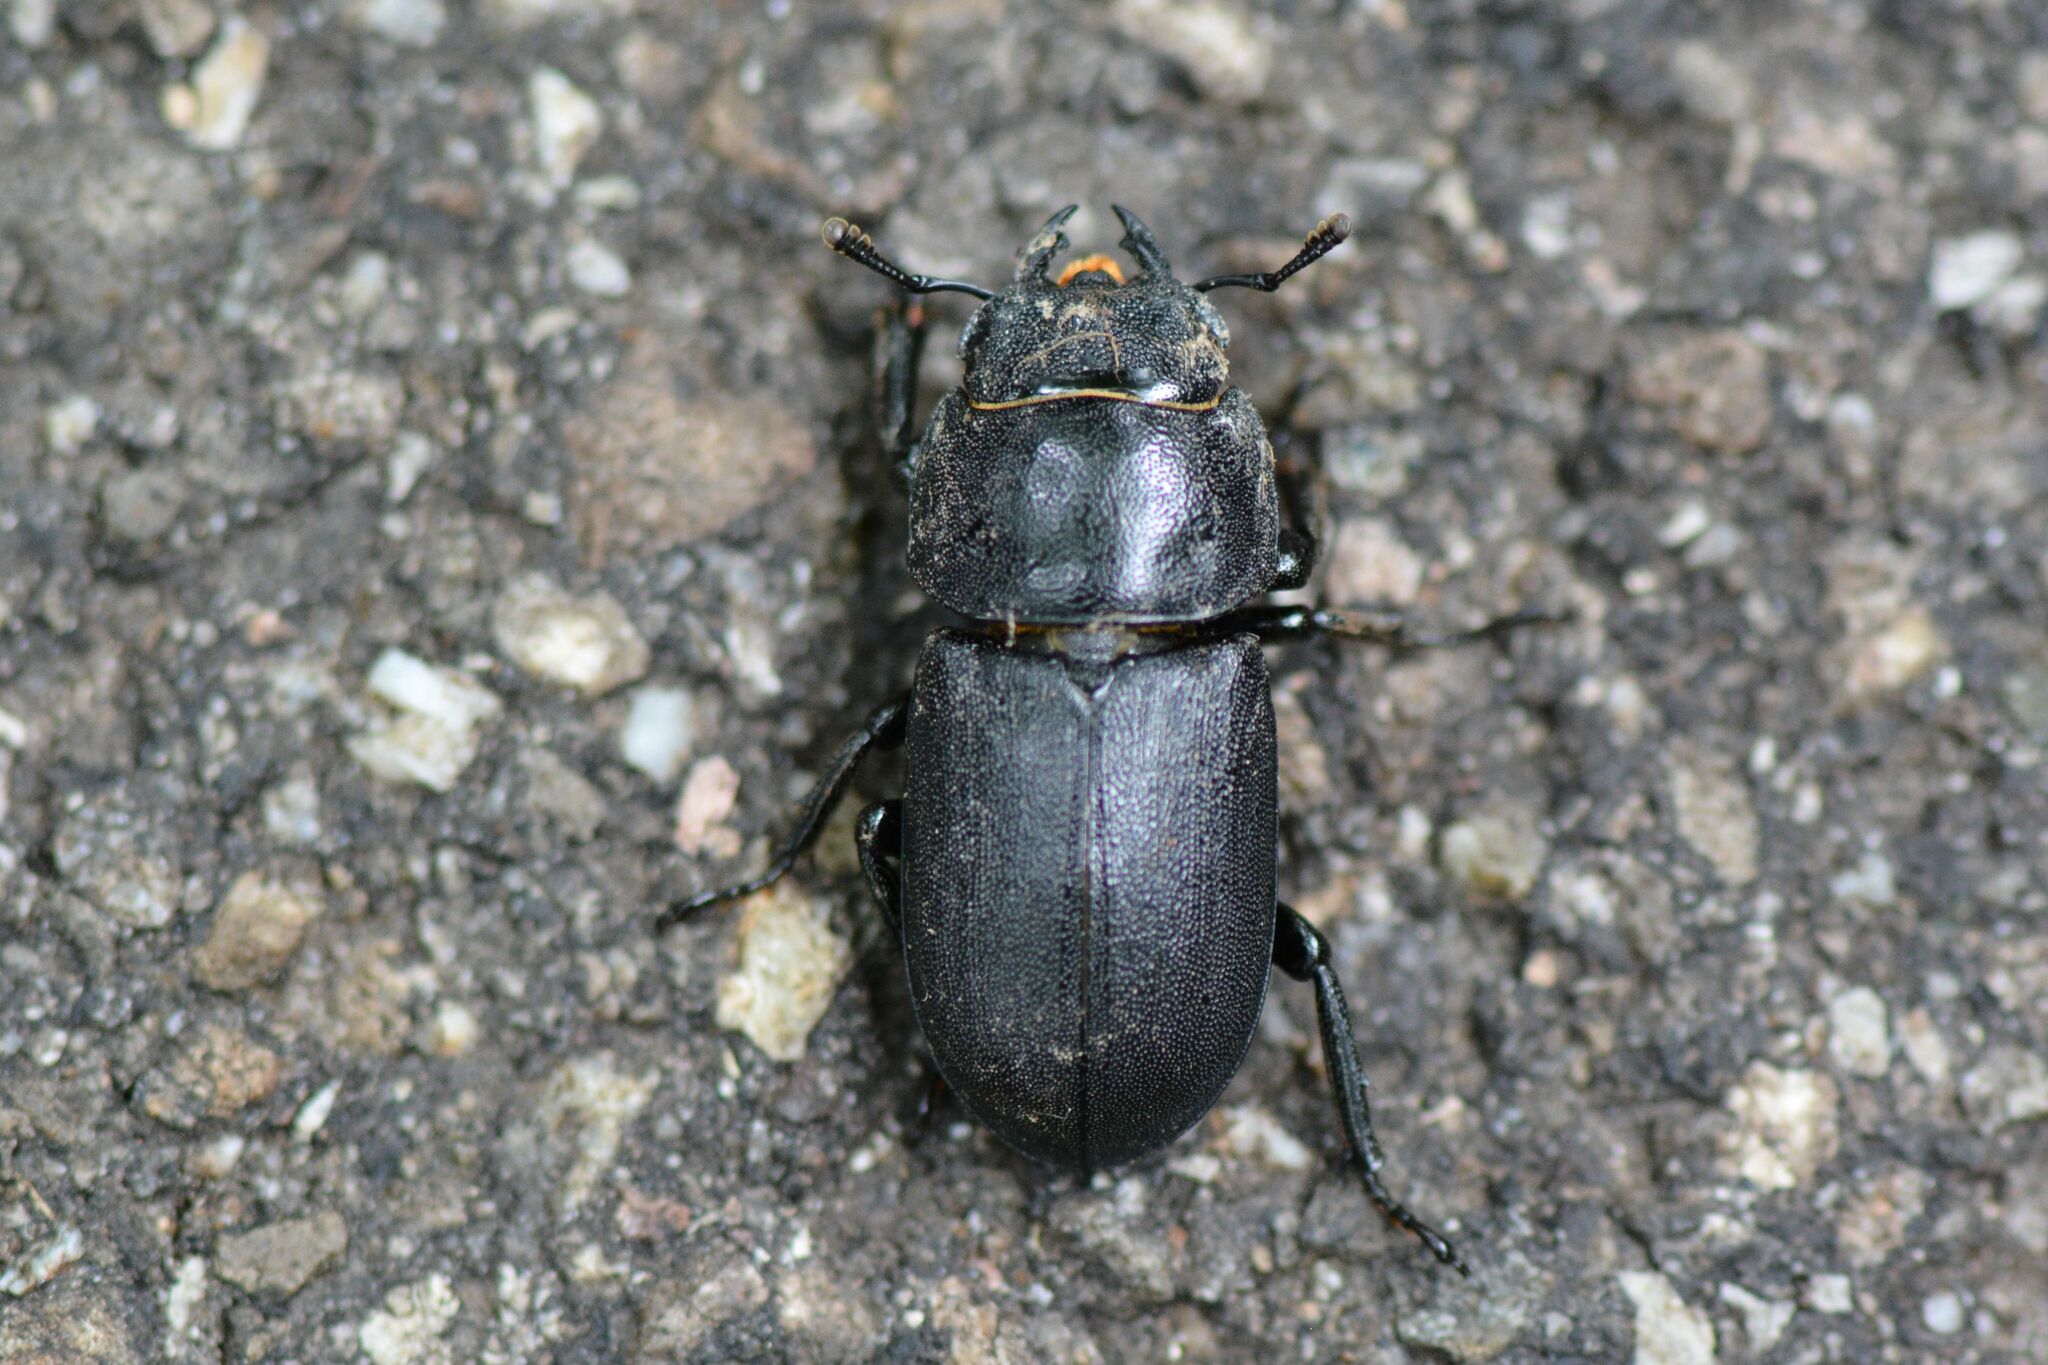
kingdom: Animalia
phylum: Arthropoda
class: Insecta
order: Coleoptera
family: Lucanidae
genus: Dorcus
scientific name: Dorcus parallelipipedus
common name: Lesser stag beetle
